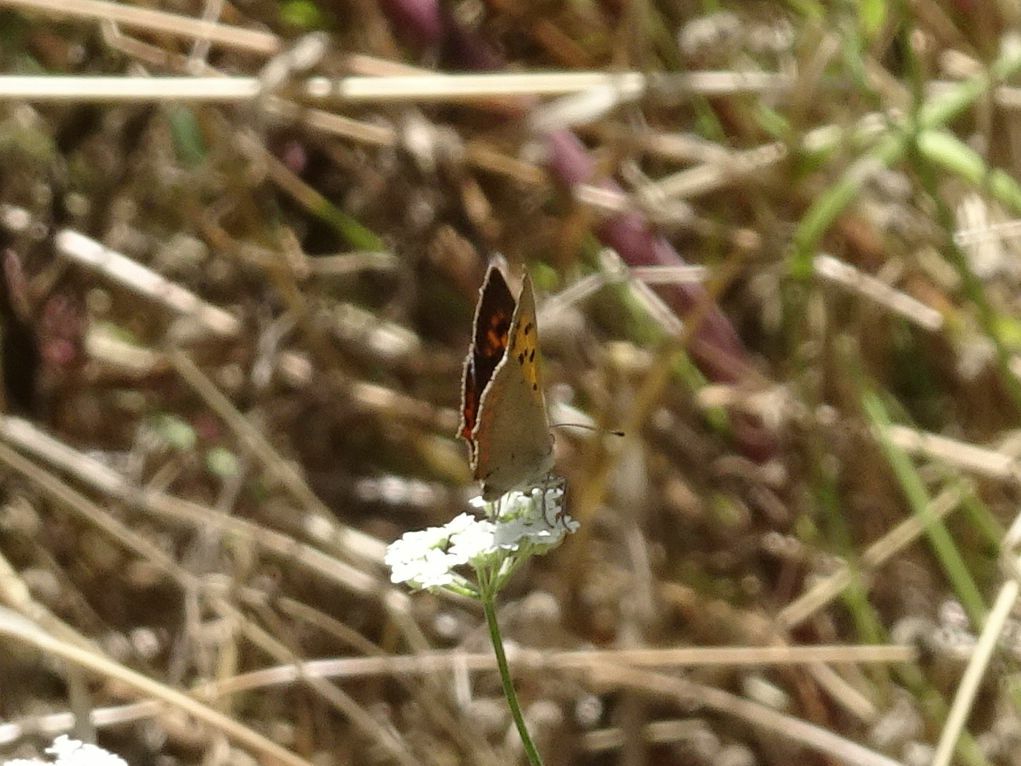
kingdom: Animalia
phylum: Arthropoda
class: Insecta
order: Lepidoptera
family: Lycaenidae
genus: Lycaena
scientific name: Lycaena phlaeas
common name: Small copper
